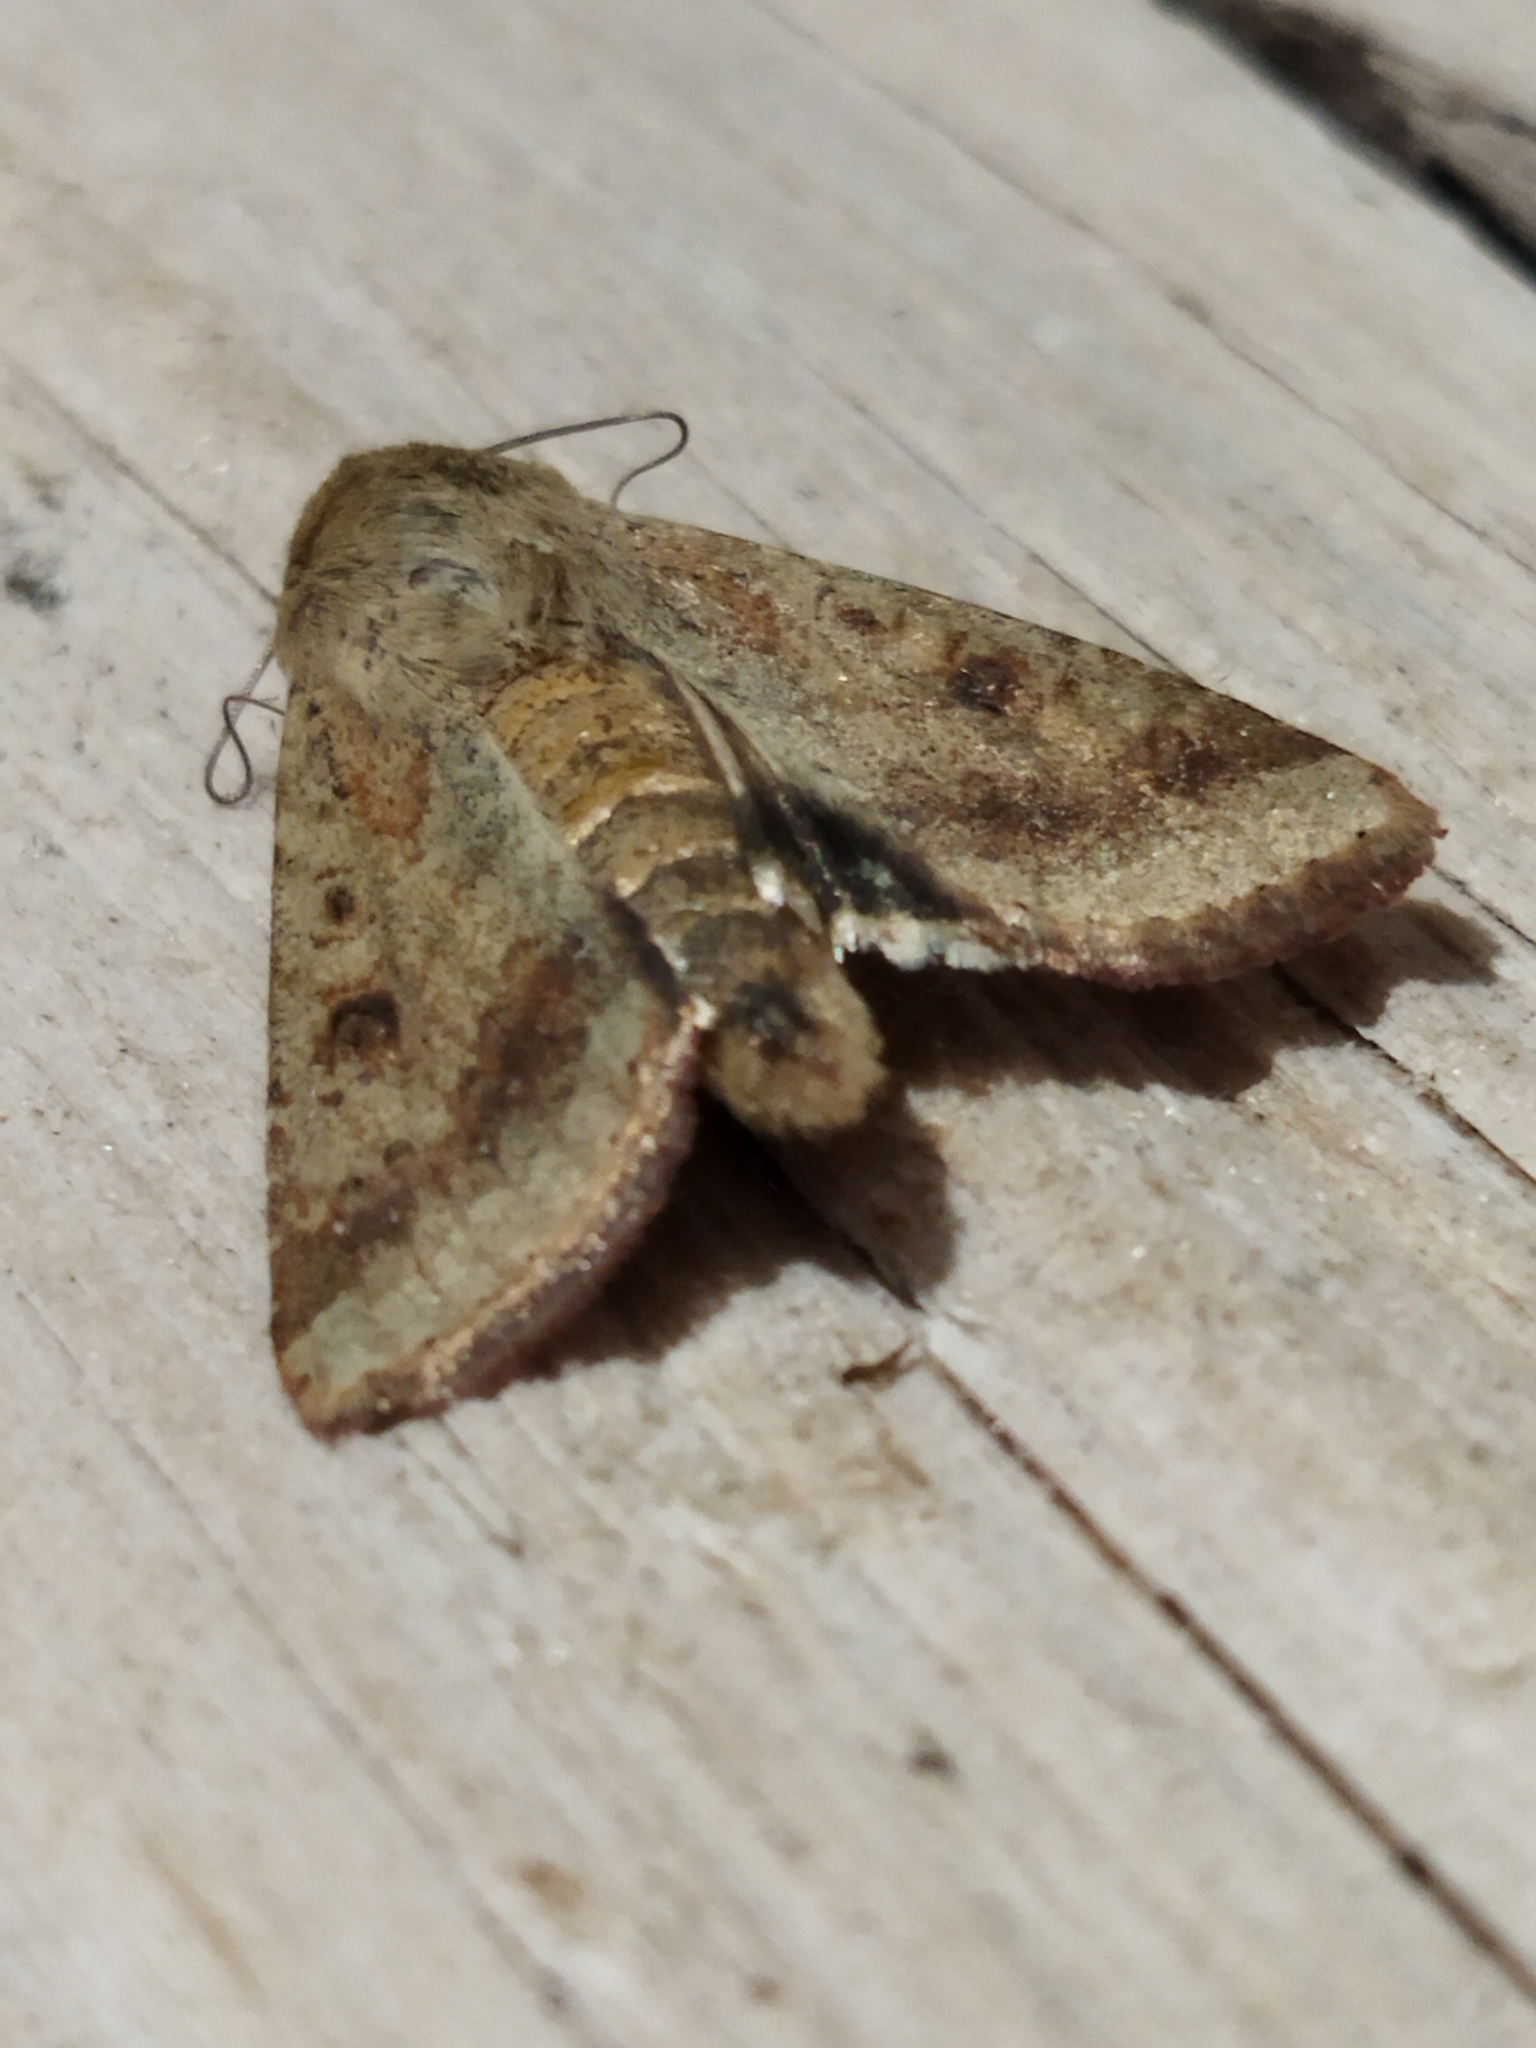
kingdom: Animalia
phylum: Arthropoda
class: Insecta
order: Lepidoptera
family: Noctuidae
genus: Helicoverpa
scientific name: Helicoverpa armigera
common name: Cotton bollworm
